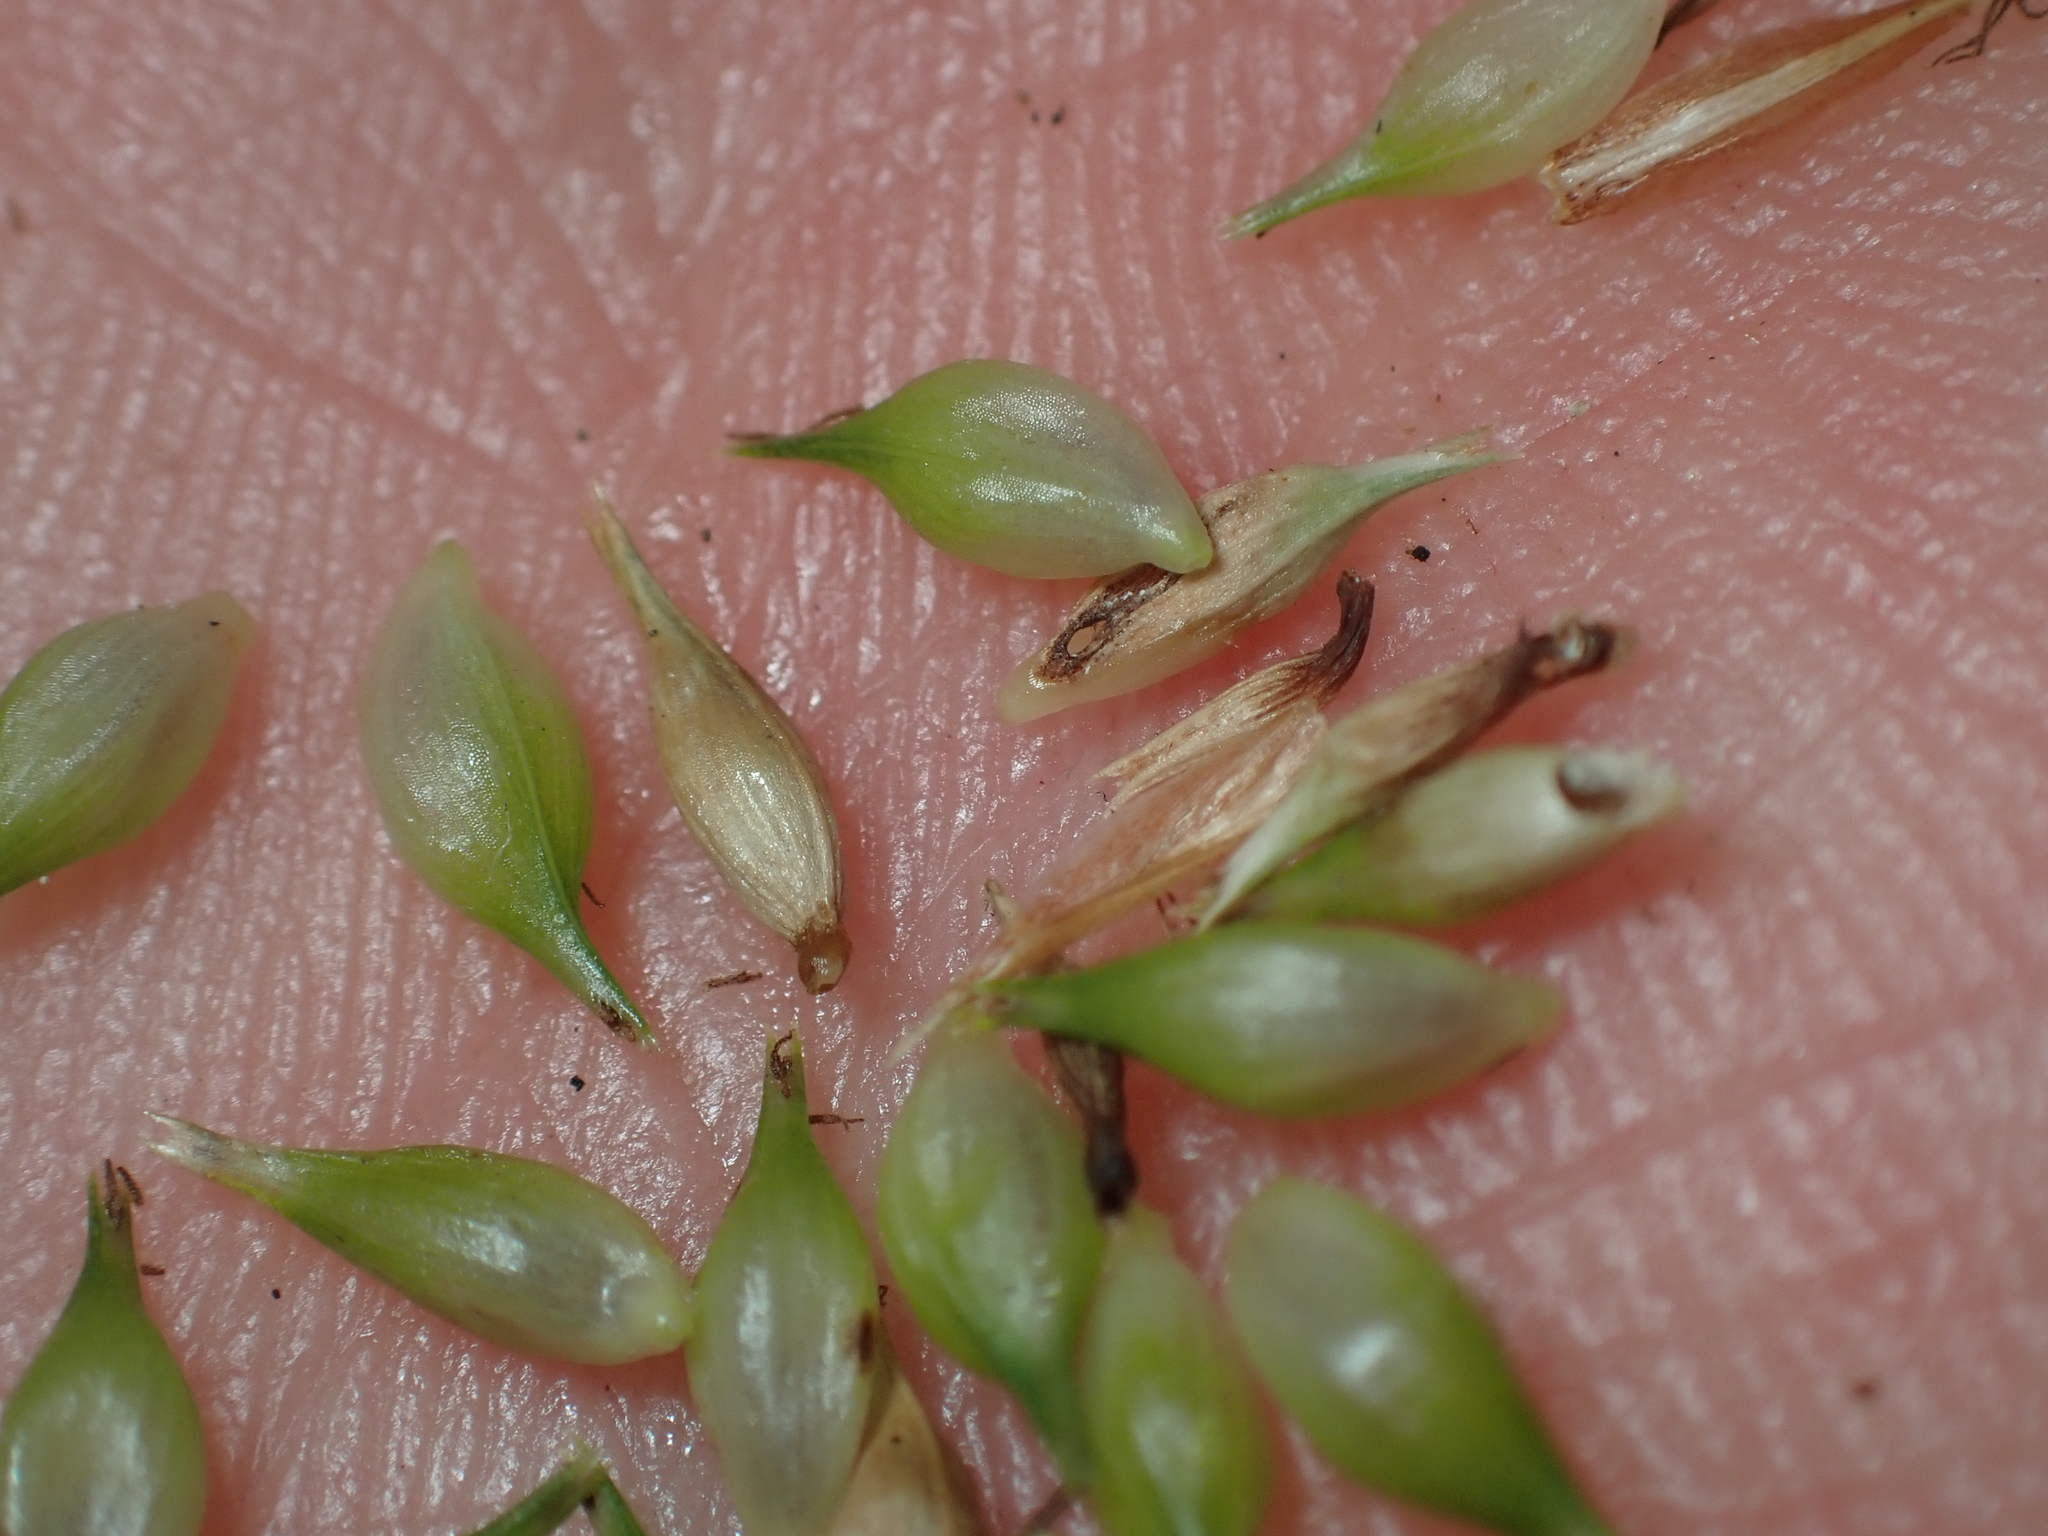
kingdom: Plantae
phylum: Tracheophyta
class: Liliopsida
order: Poales
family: Cyperaceae
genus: Carex
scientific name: Carex forsteri
